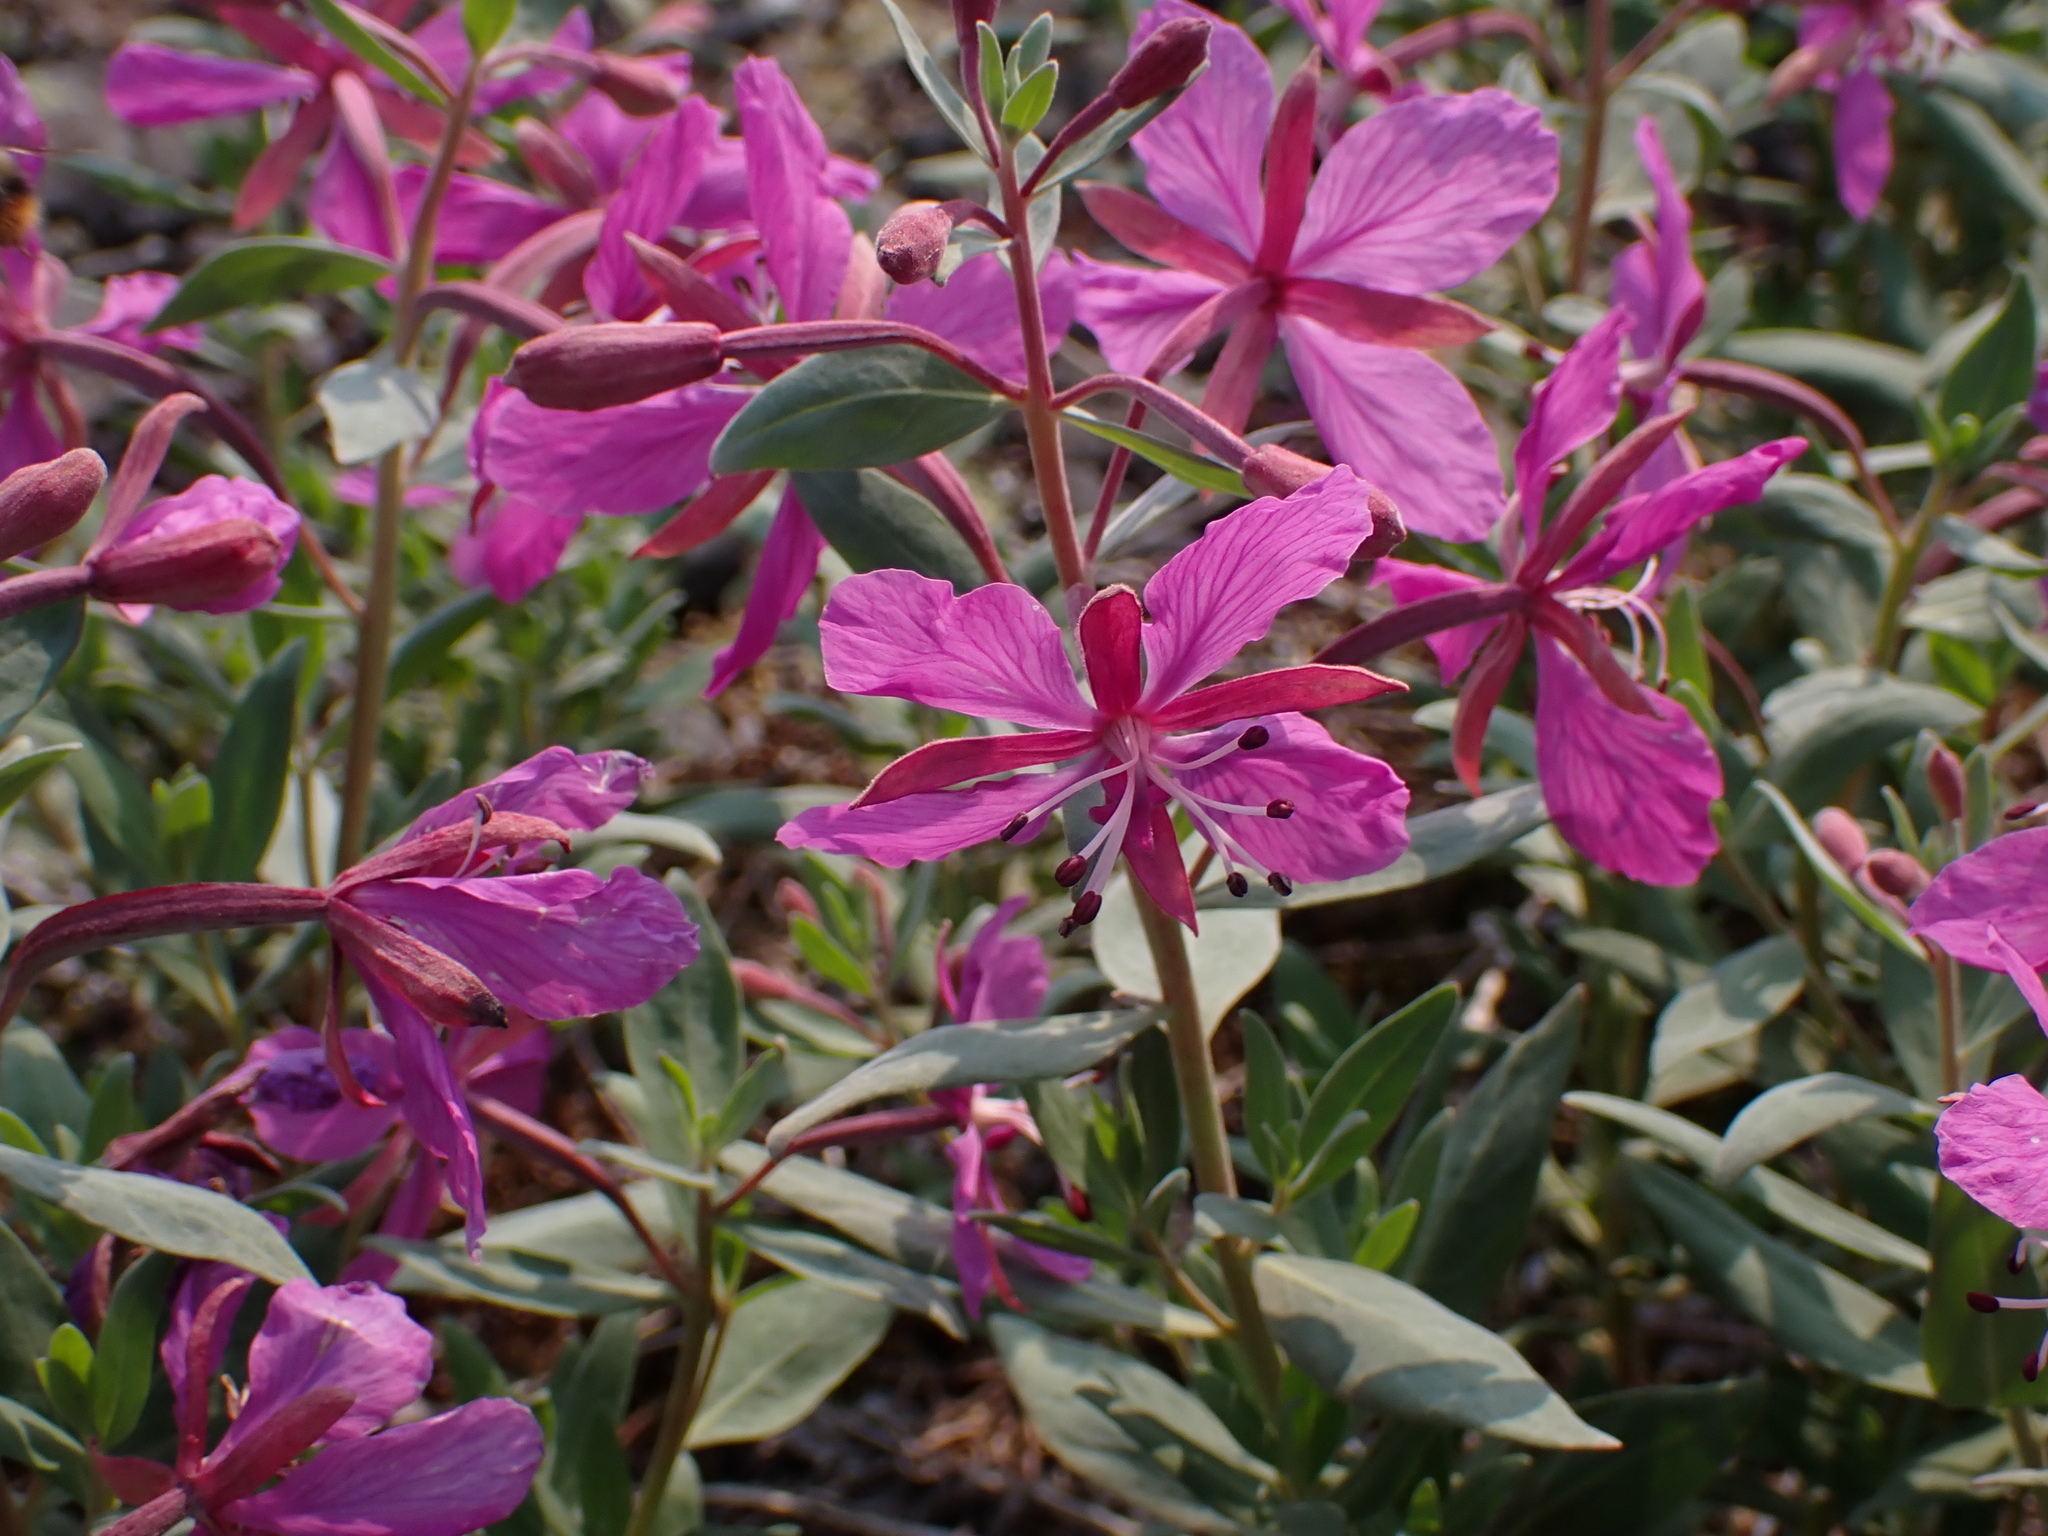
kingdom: Plantae
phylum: Tracheophyta
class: Magnoliopsida
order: Myrtales
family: Onagraceae
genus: Chamaenerion
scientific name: Chamaenerion latifolium
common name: Dwarf fireweed
